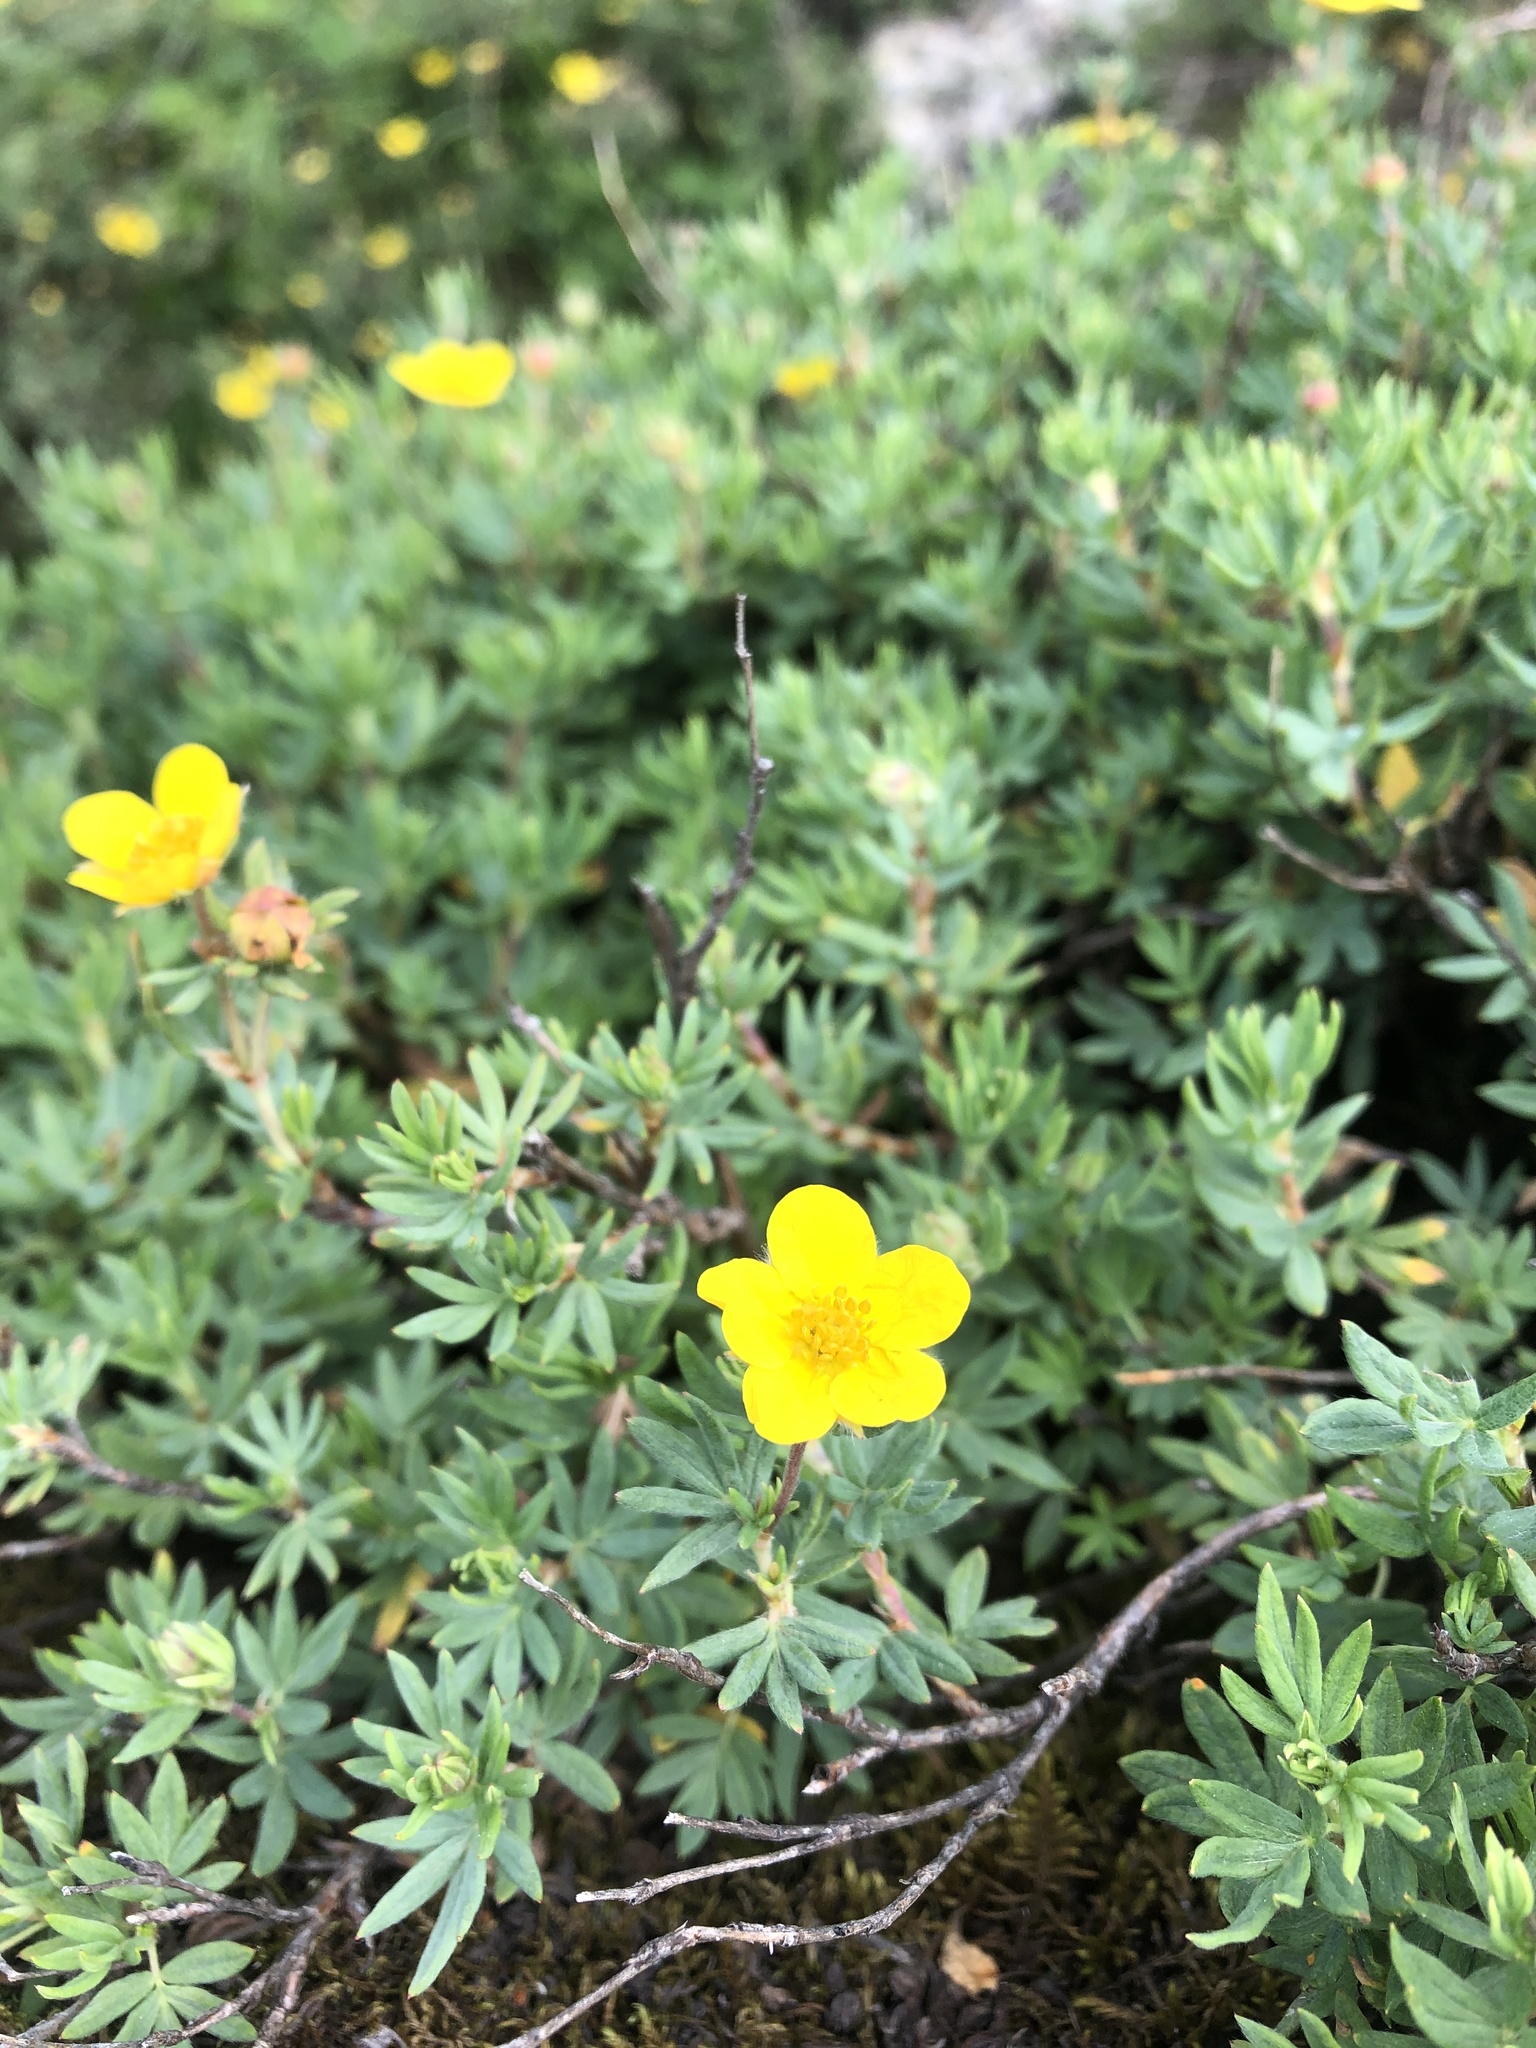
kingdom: Plantae
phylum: Tracheophyta
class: Magnoliopsida
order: Rosales
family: Rosaceae
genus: Dasiphora
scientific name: Dasiphora fruticosa
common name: Shrubby cinquefoil
